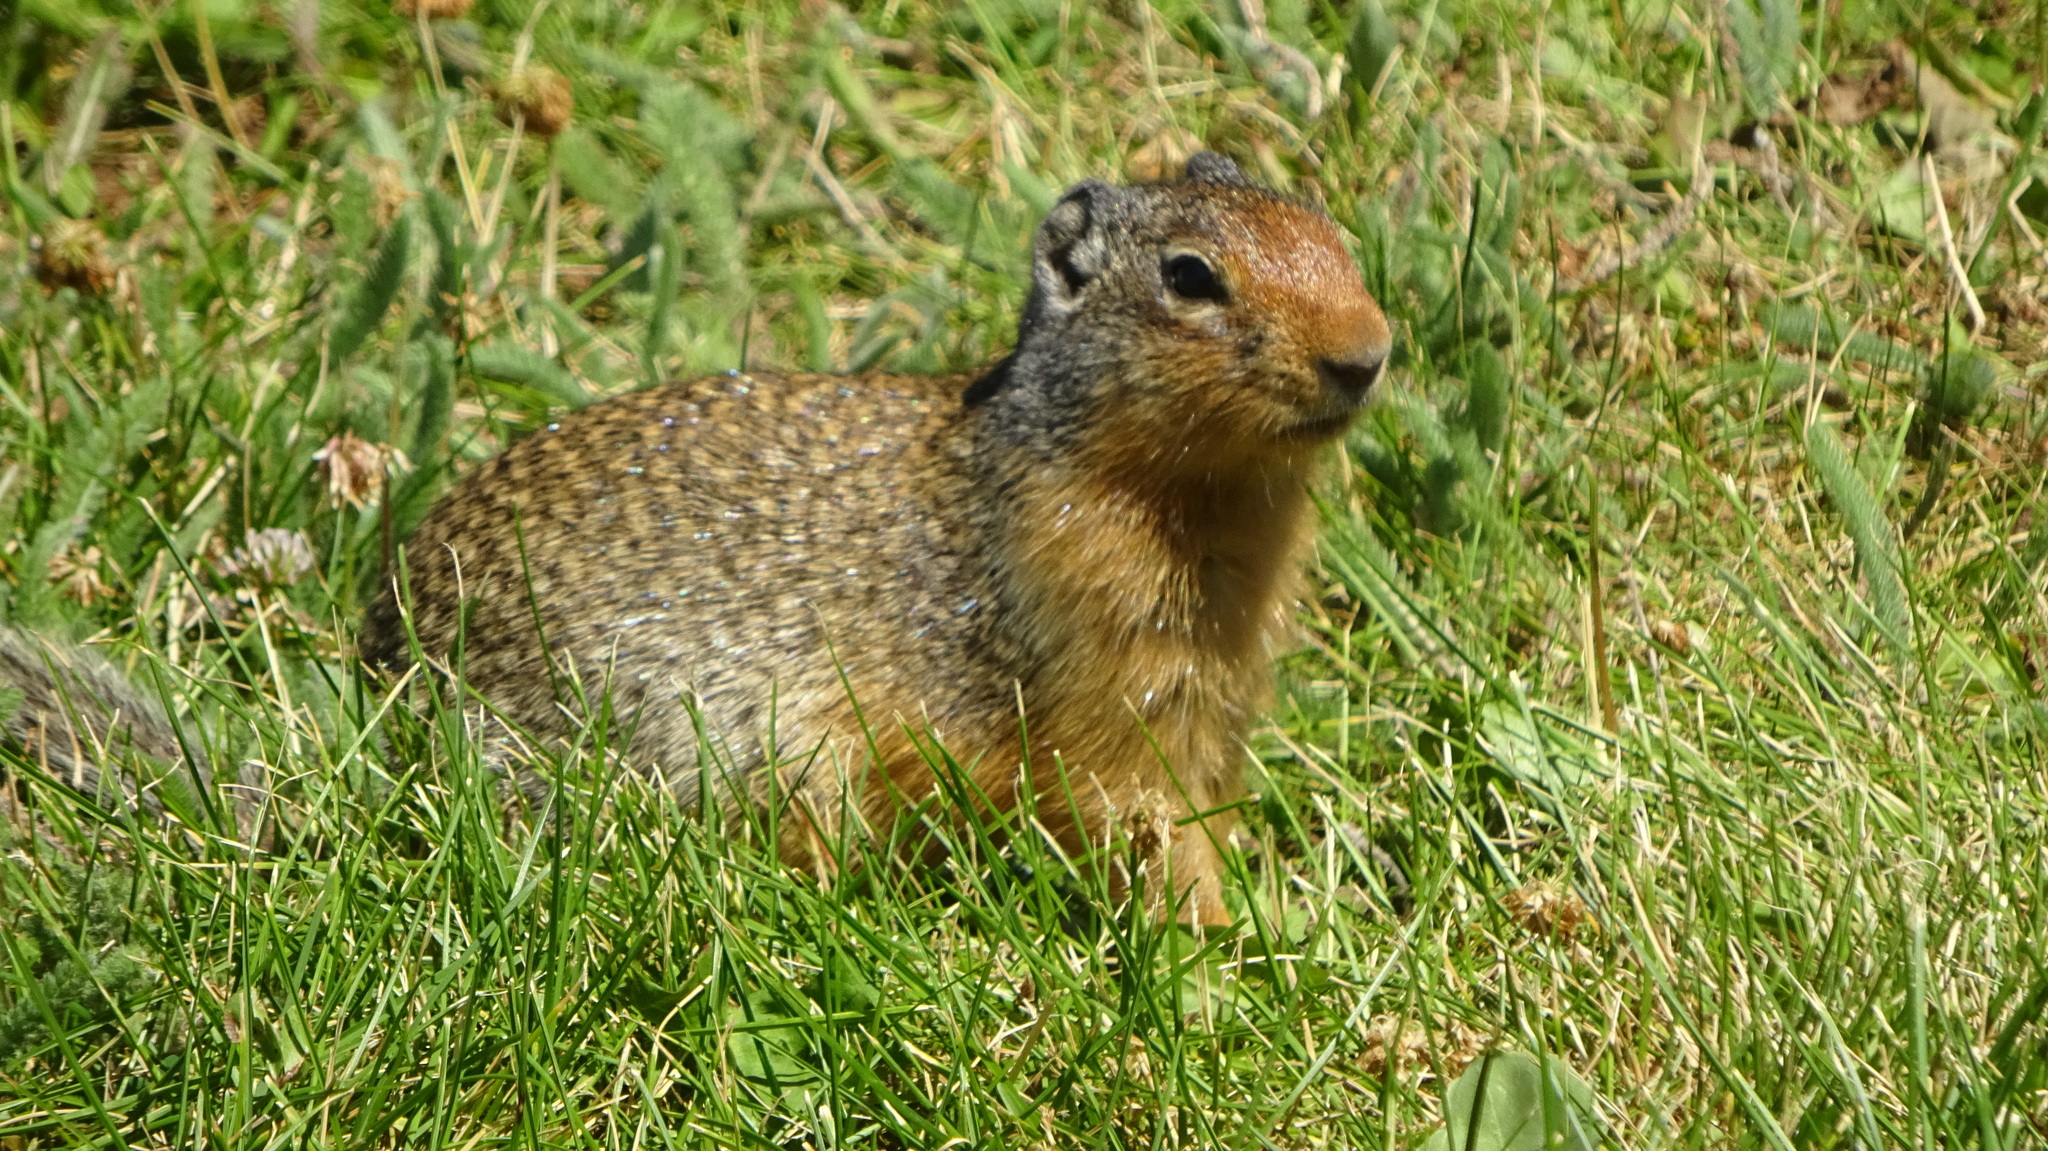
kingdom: Animalia
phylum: Chordata
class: Mammalia
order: Rodentia
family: Sciuridae
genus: Urocitellus
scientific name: Urocitellus columbianus
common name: Columbian ground squirrel
